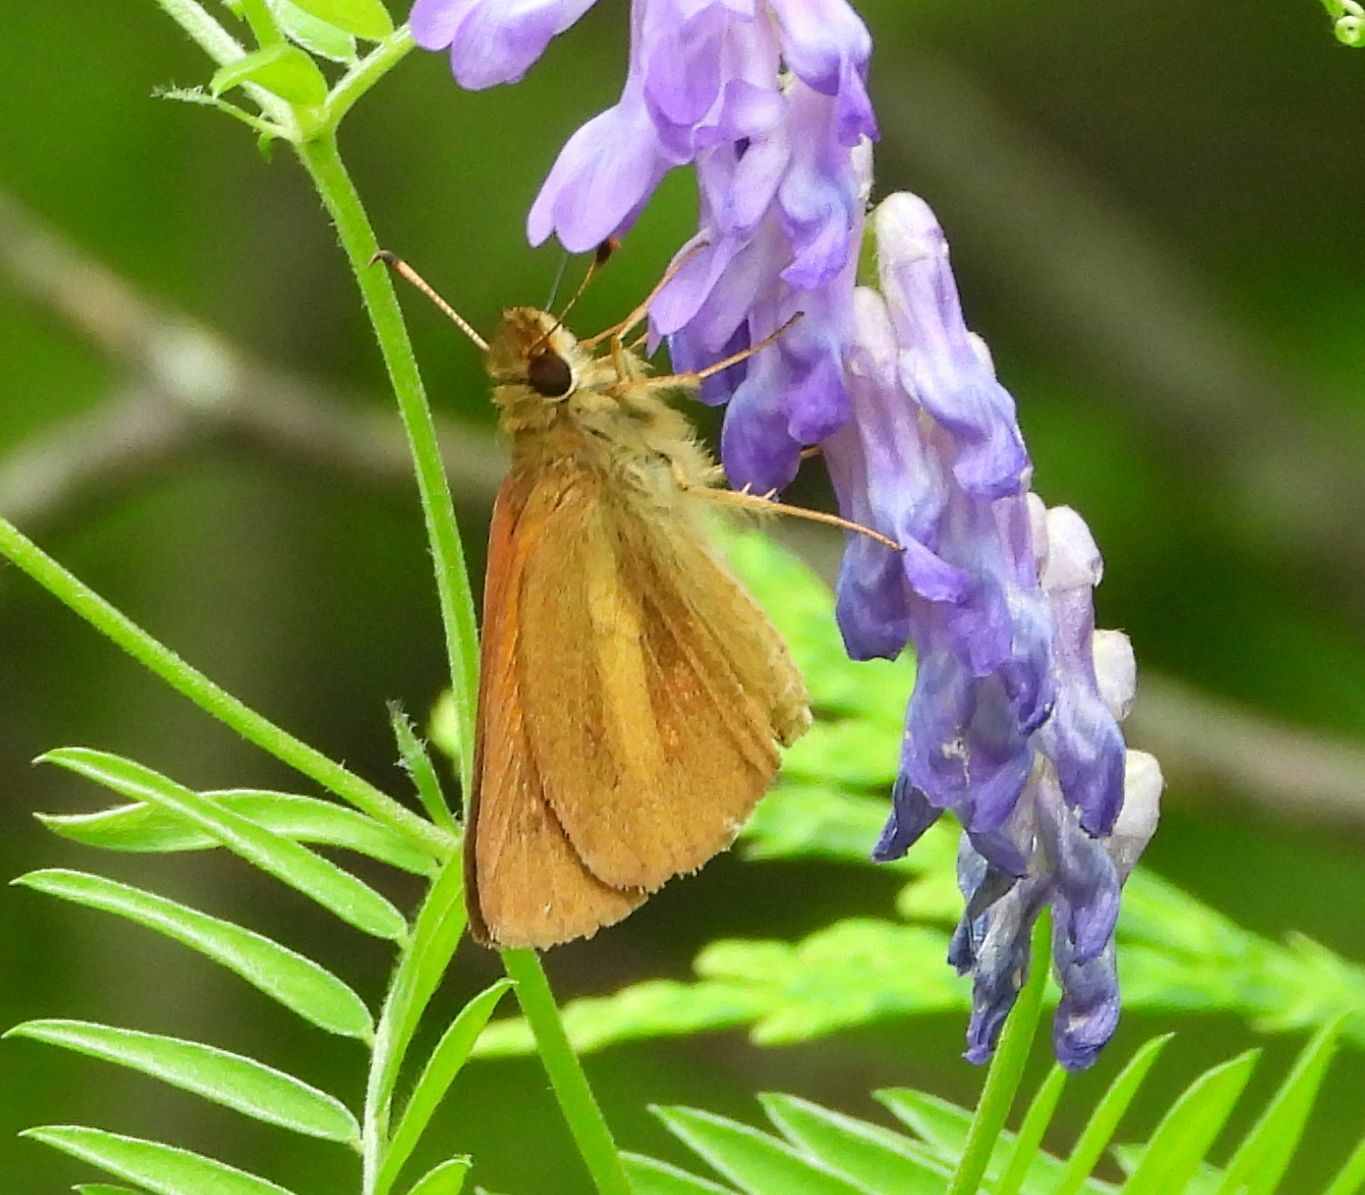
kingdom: Animalia
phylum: Arthropoda
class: Insecta
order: Lepidoptera
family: Hesperiidae
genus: Poanes
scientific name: Poanes viator
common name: Broad-winged skipper
